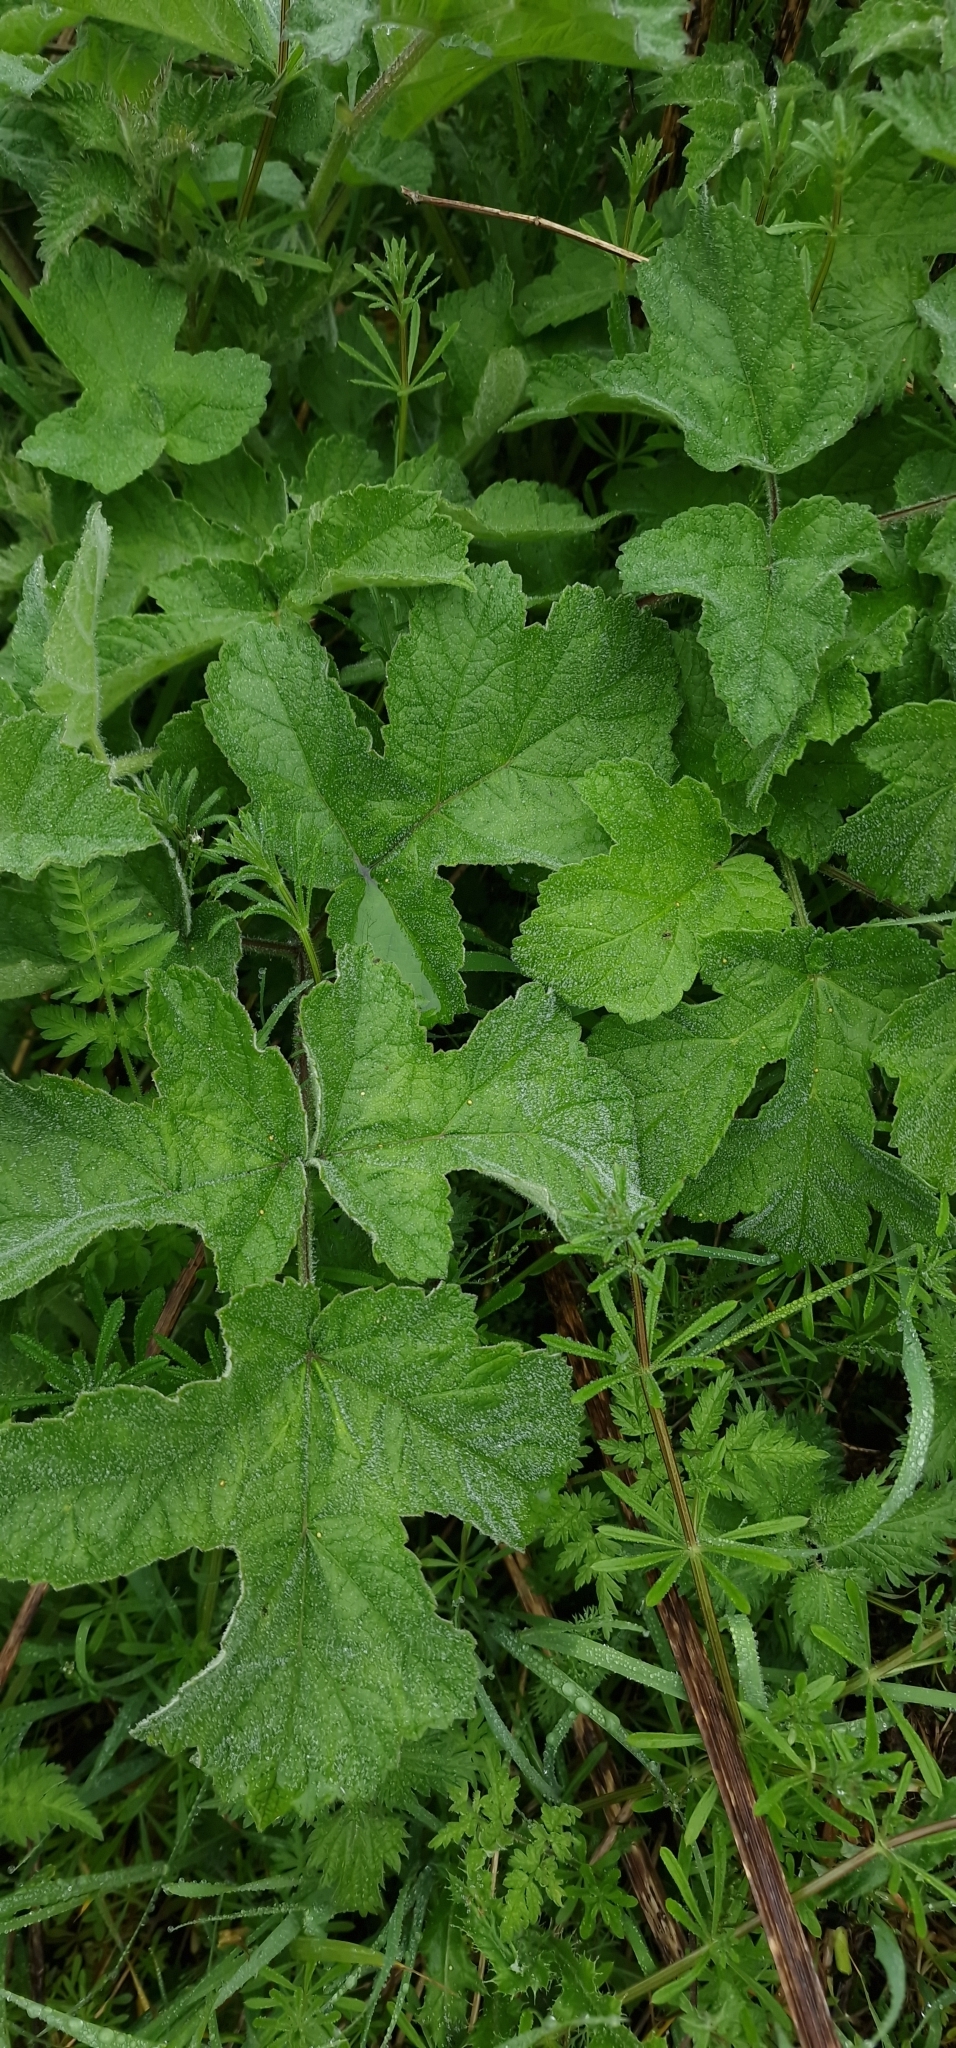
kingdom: Plantae
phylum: Tracheophyta
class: Magnoliopsida
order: Apiales
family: Apiaceae
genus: Heracleum
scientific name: Heracleum sphondylium
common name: Hogweed
